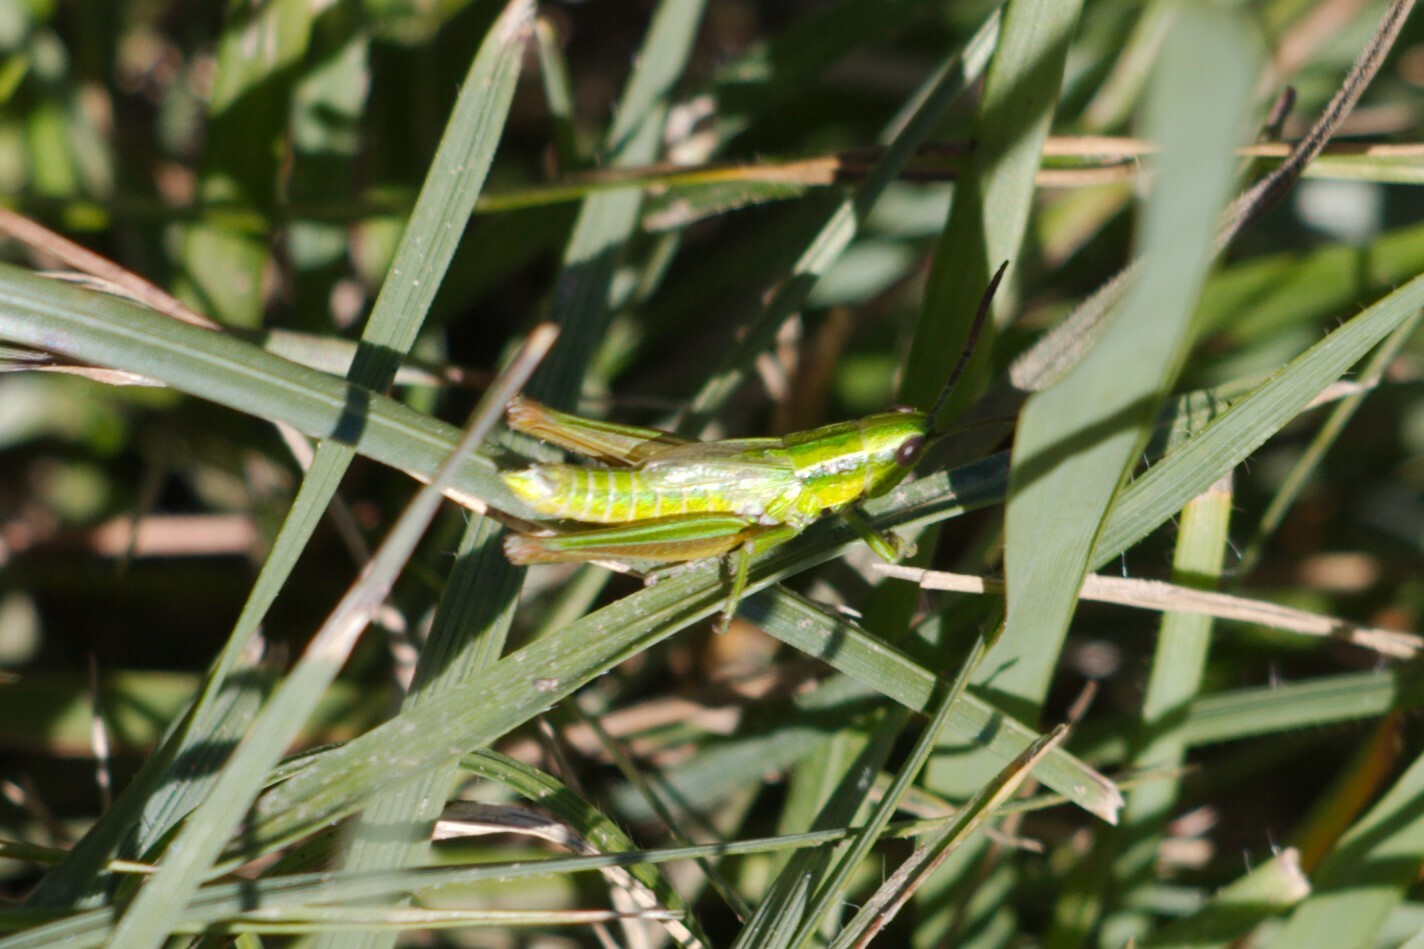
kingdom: Animalia
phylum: Arthropoda
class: Insecta
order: Orthoptera
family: Acrididae
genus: Euthystira
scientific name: Euthystira brachyptera
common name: Small gold grasshopper
